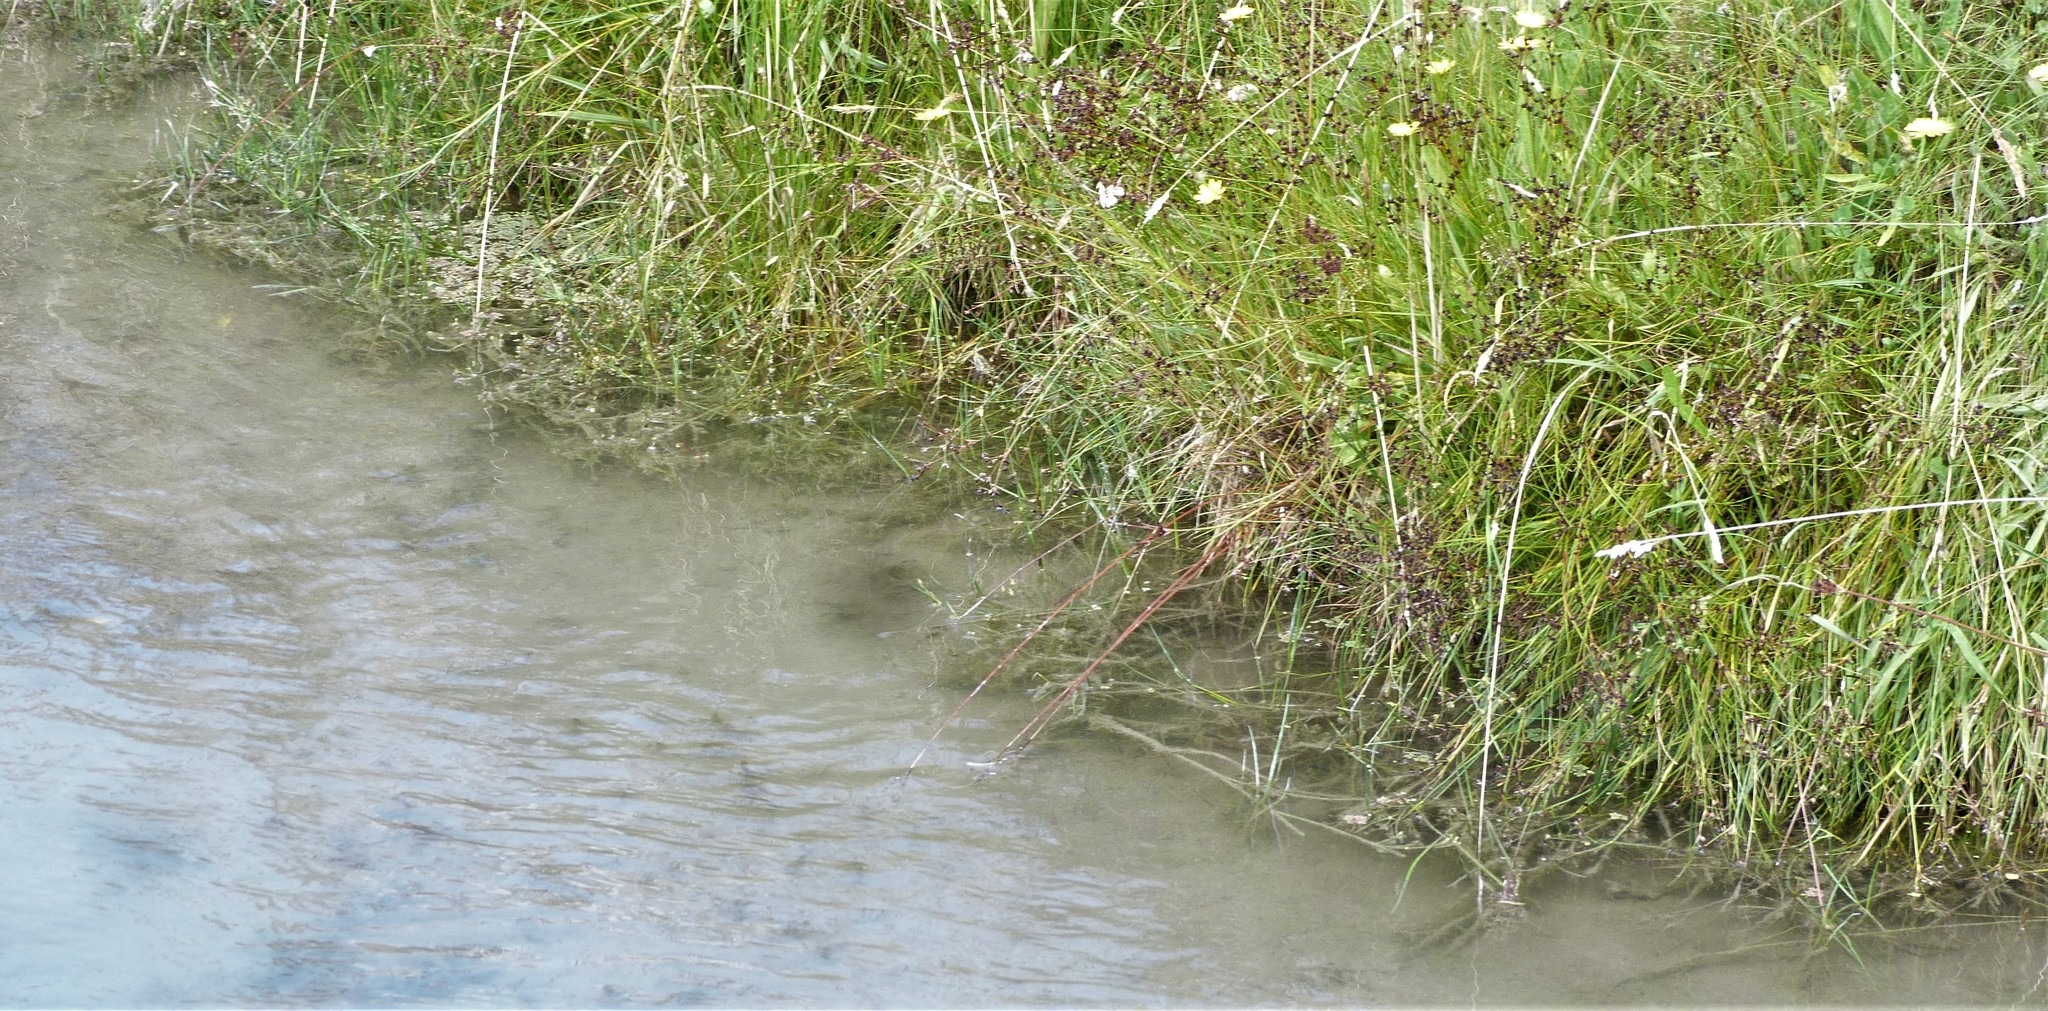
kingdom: Plantae
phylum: Tracheophyta
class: Liliopsida
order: Poales
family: Juncaceae
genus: Juncus
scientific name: Juncus articulatus
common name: Jointed rush
